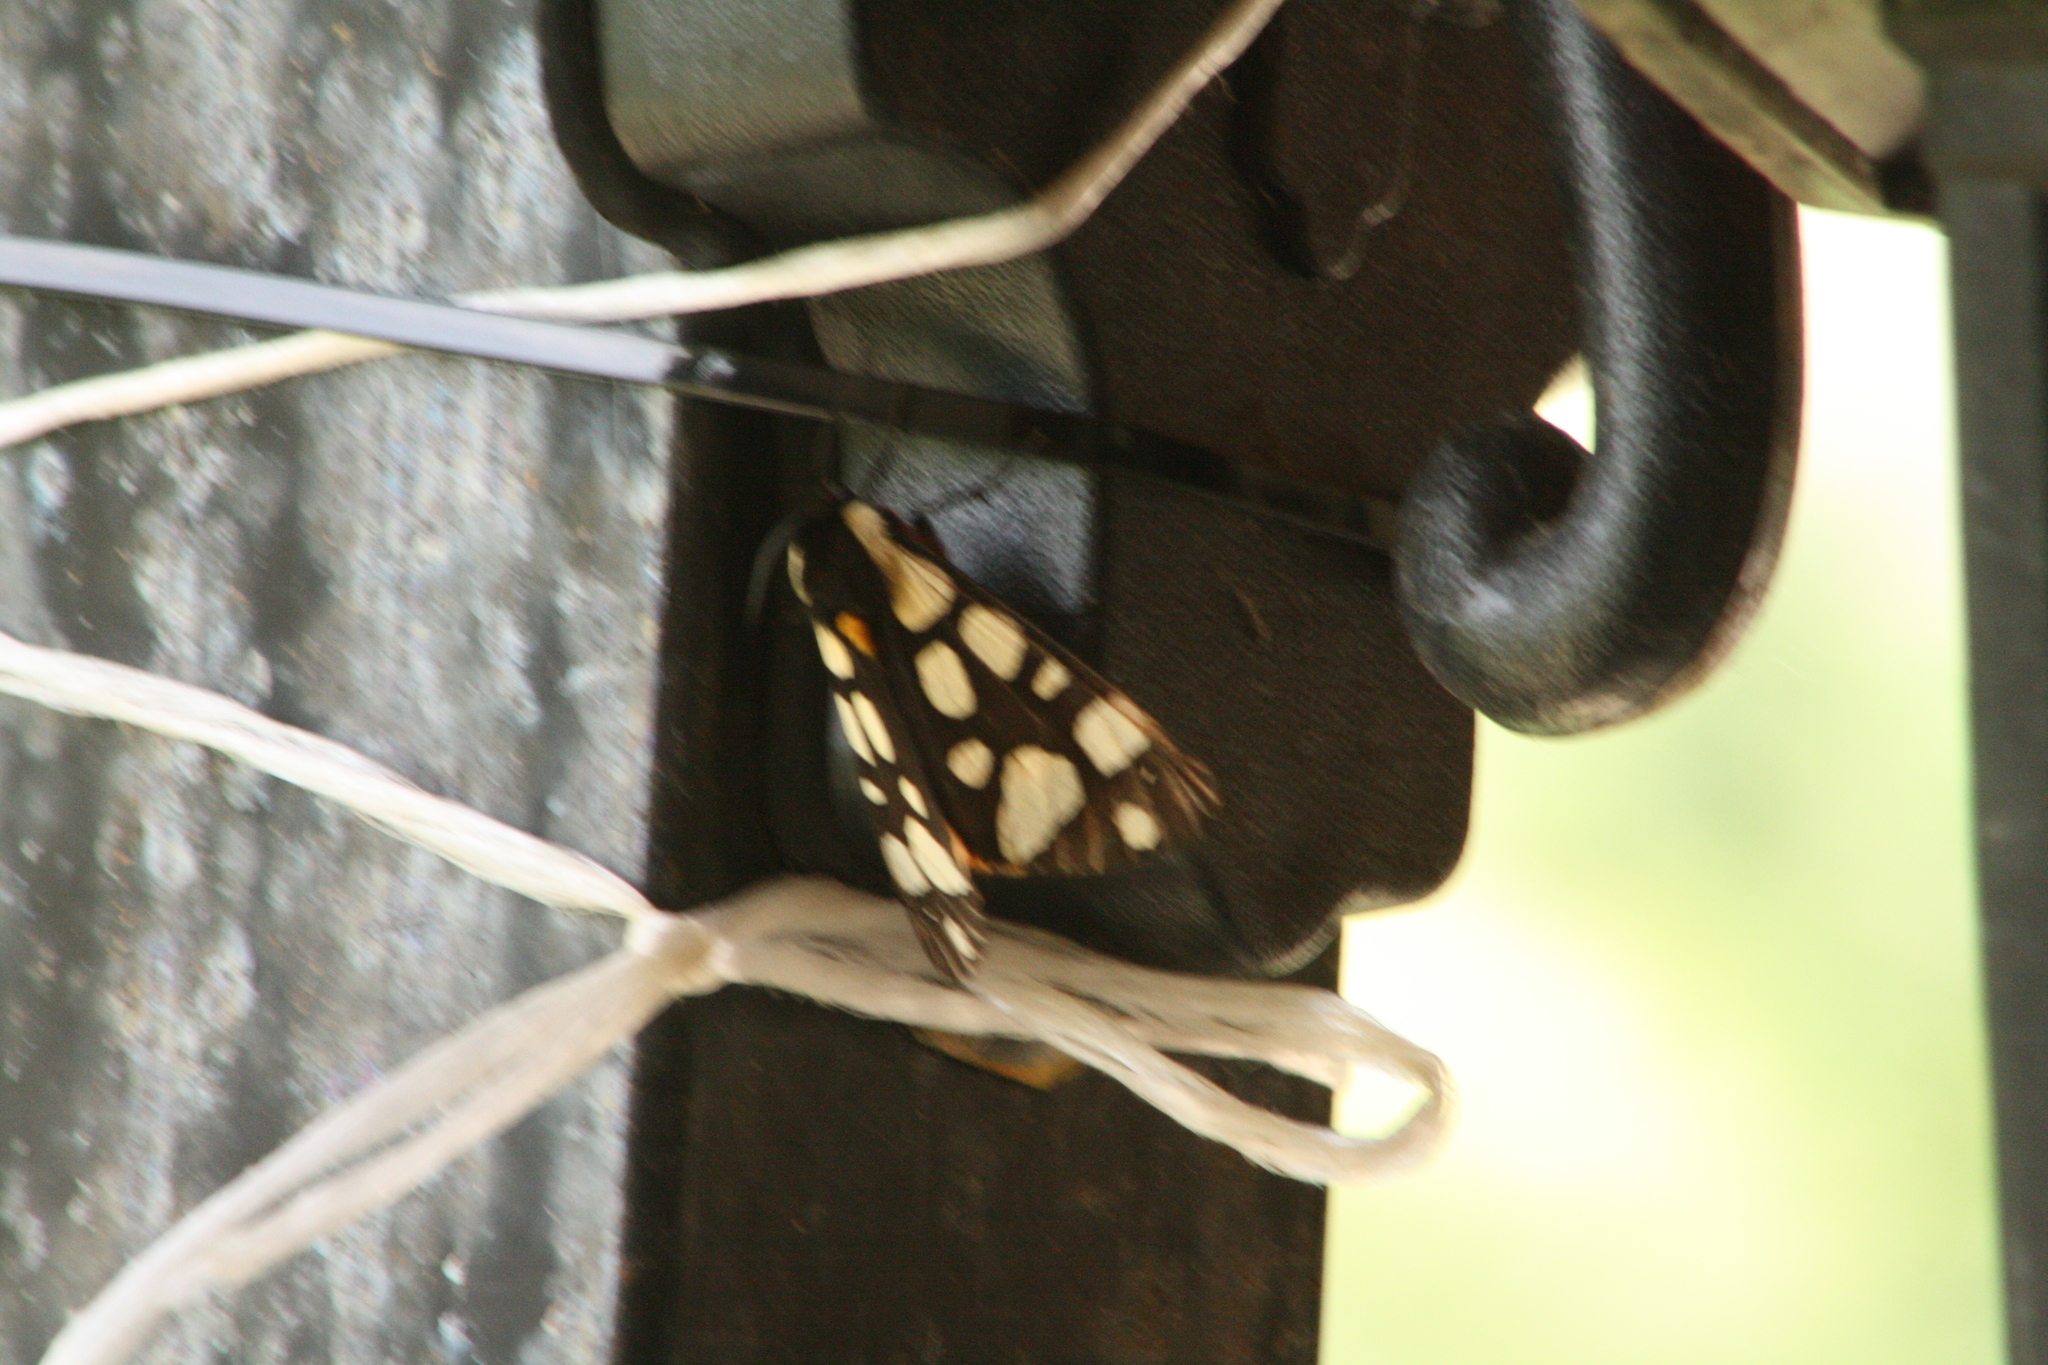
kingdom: Animalia
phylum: Arthropoda
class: Insecta
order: Lepidoptera
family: Erebidae
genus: Epicallia
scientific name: Epicallia villica
